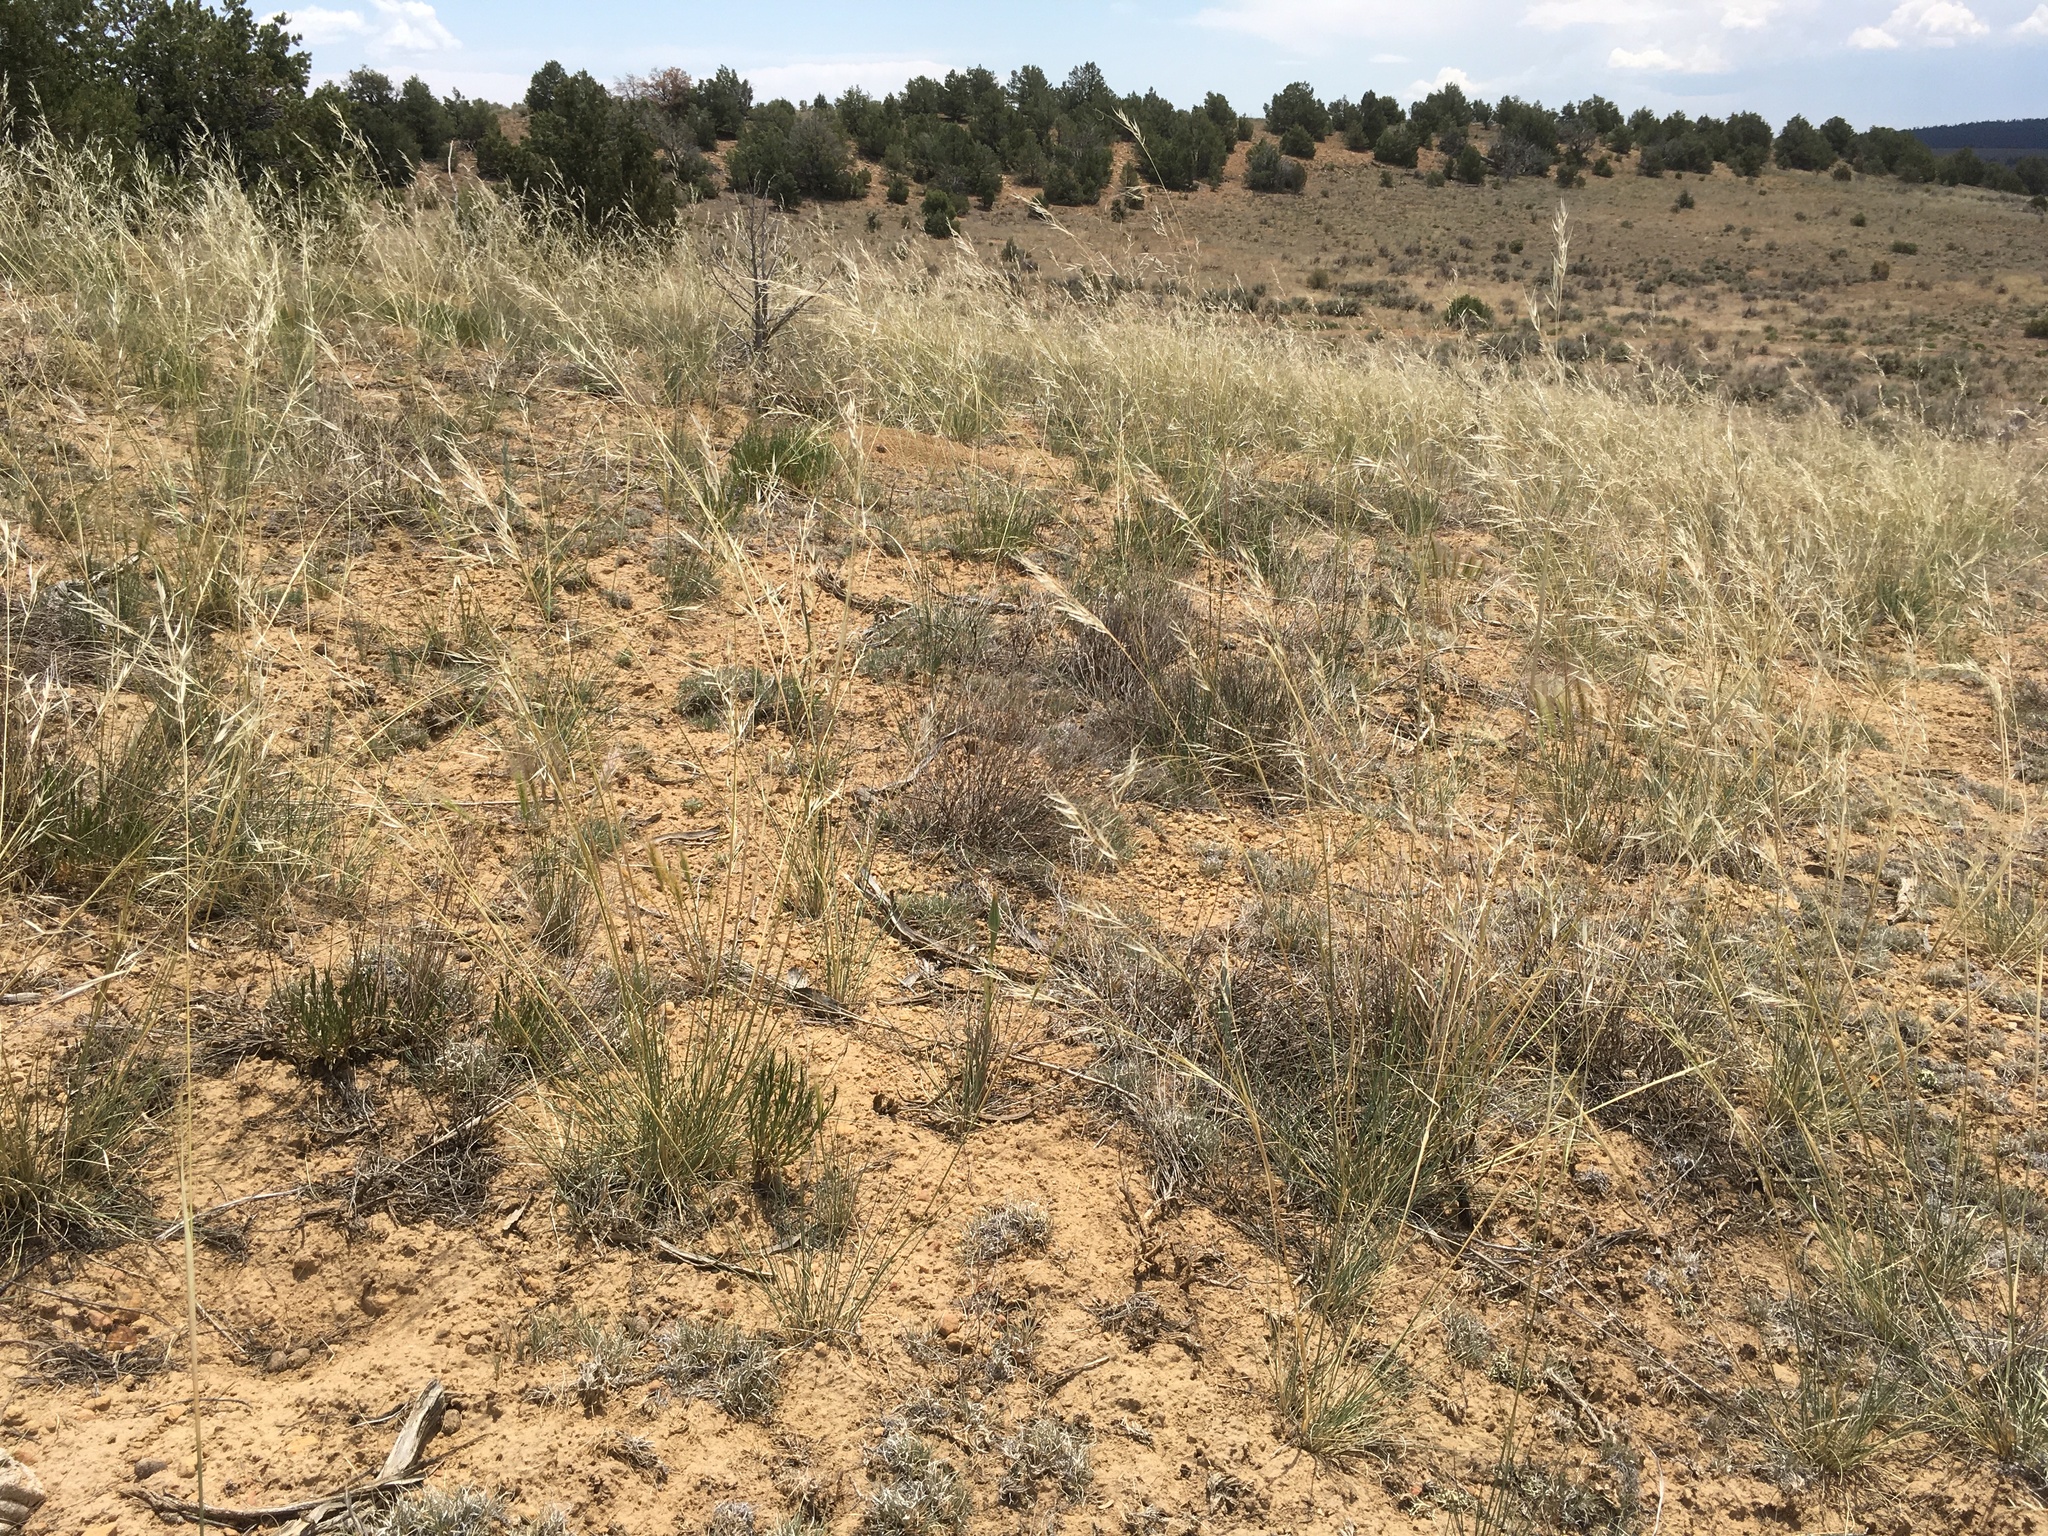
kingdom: Plantae
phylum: Tracheophyta
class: Liliopsida
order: Poales
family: Poaceae
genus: Hesperostipa
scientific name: Hesperostipa comata
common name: Needle-and-thread grass
